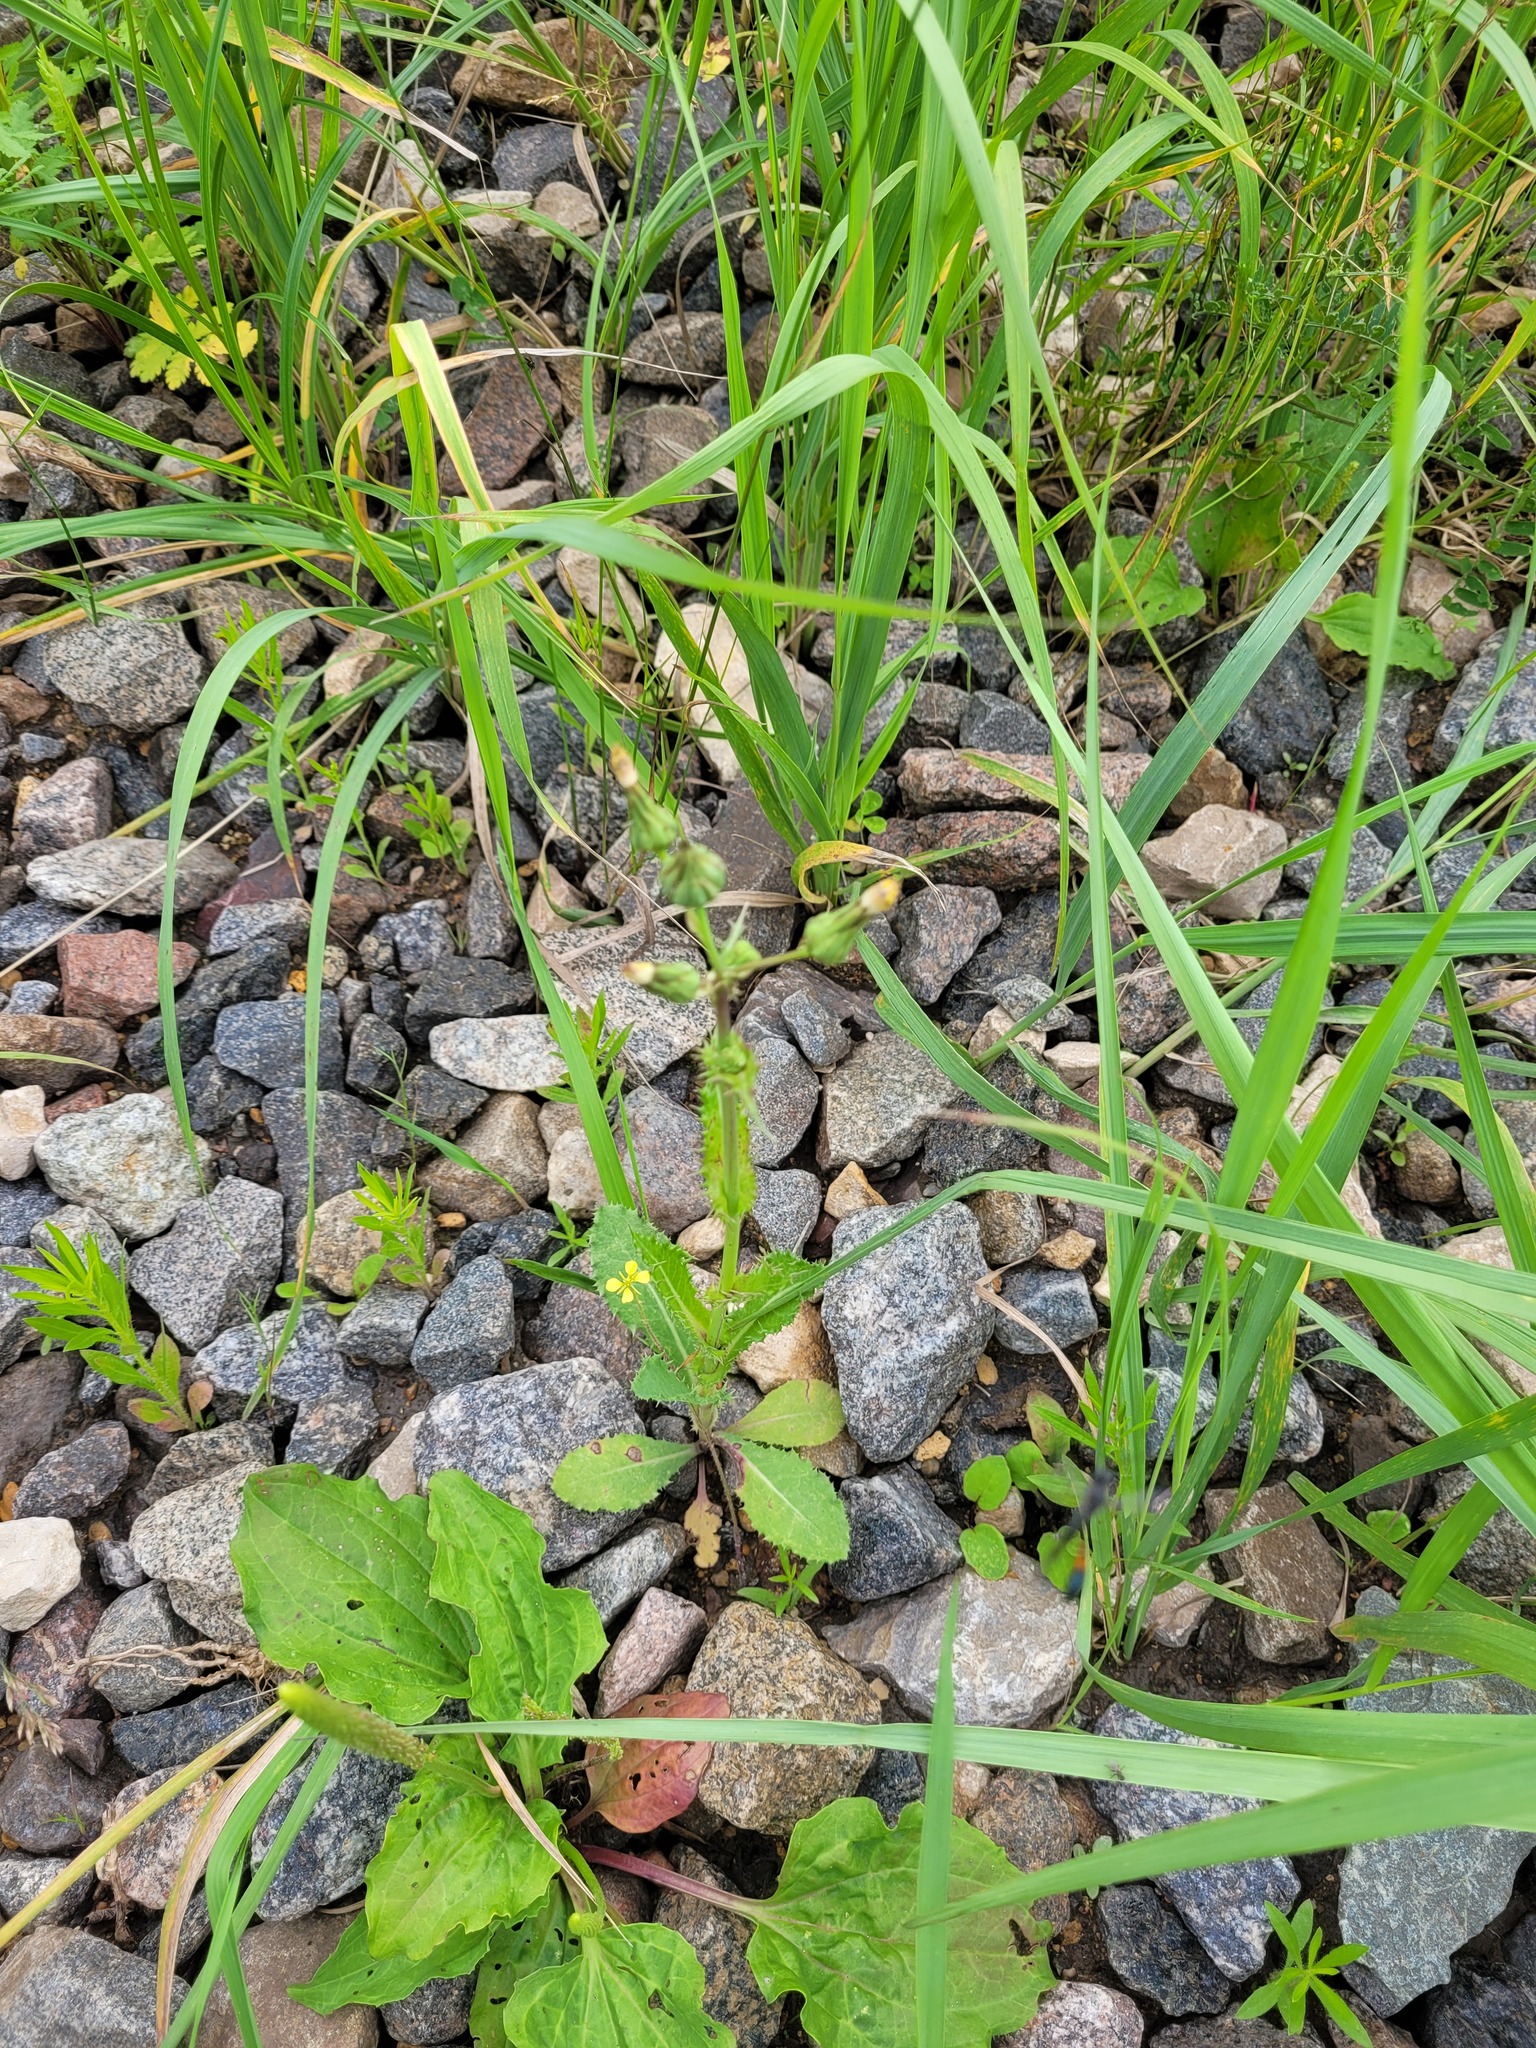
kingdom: Plantae
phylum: Tracheophyta
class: Magnoliopsida
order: Asterales
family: Asteraceae
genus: Sonchus
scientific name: Sonchus asper
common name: Prickly sow-thistle
